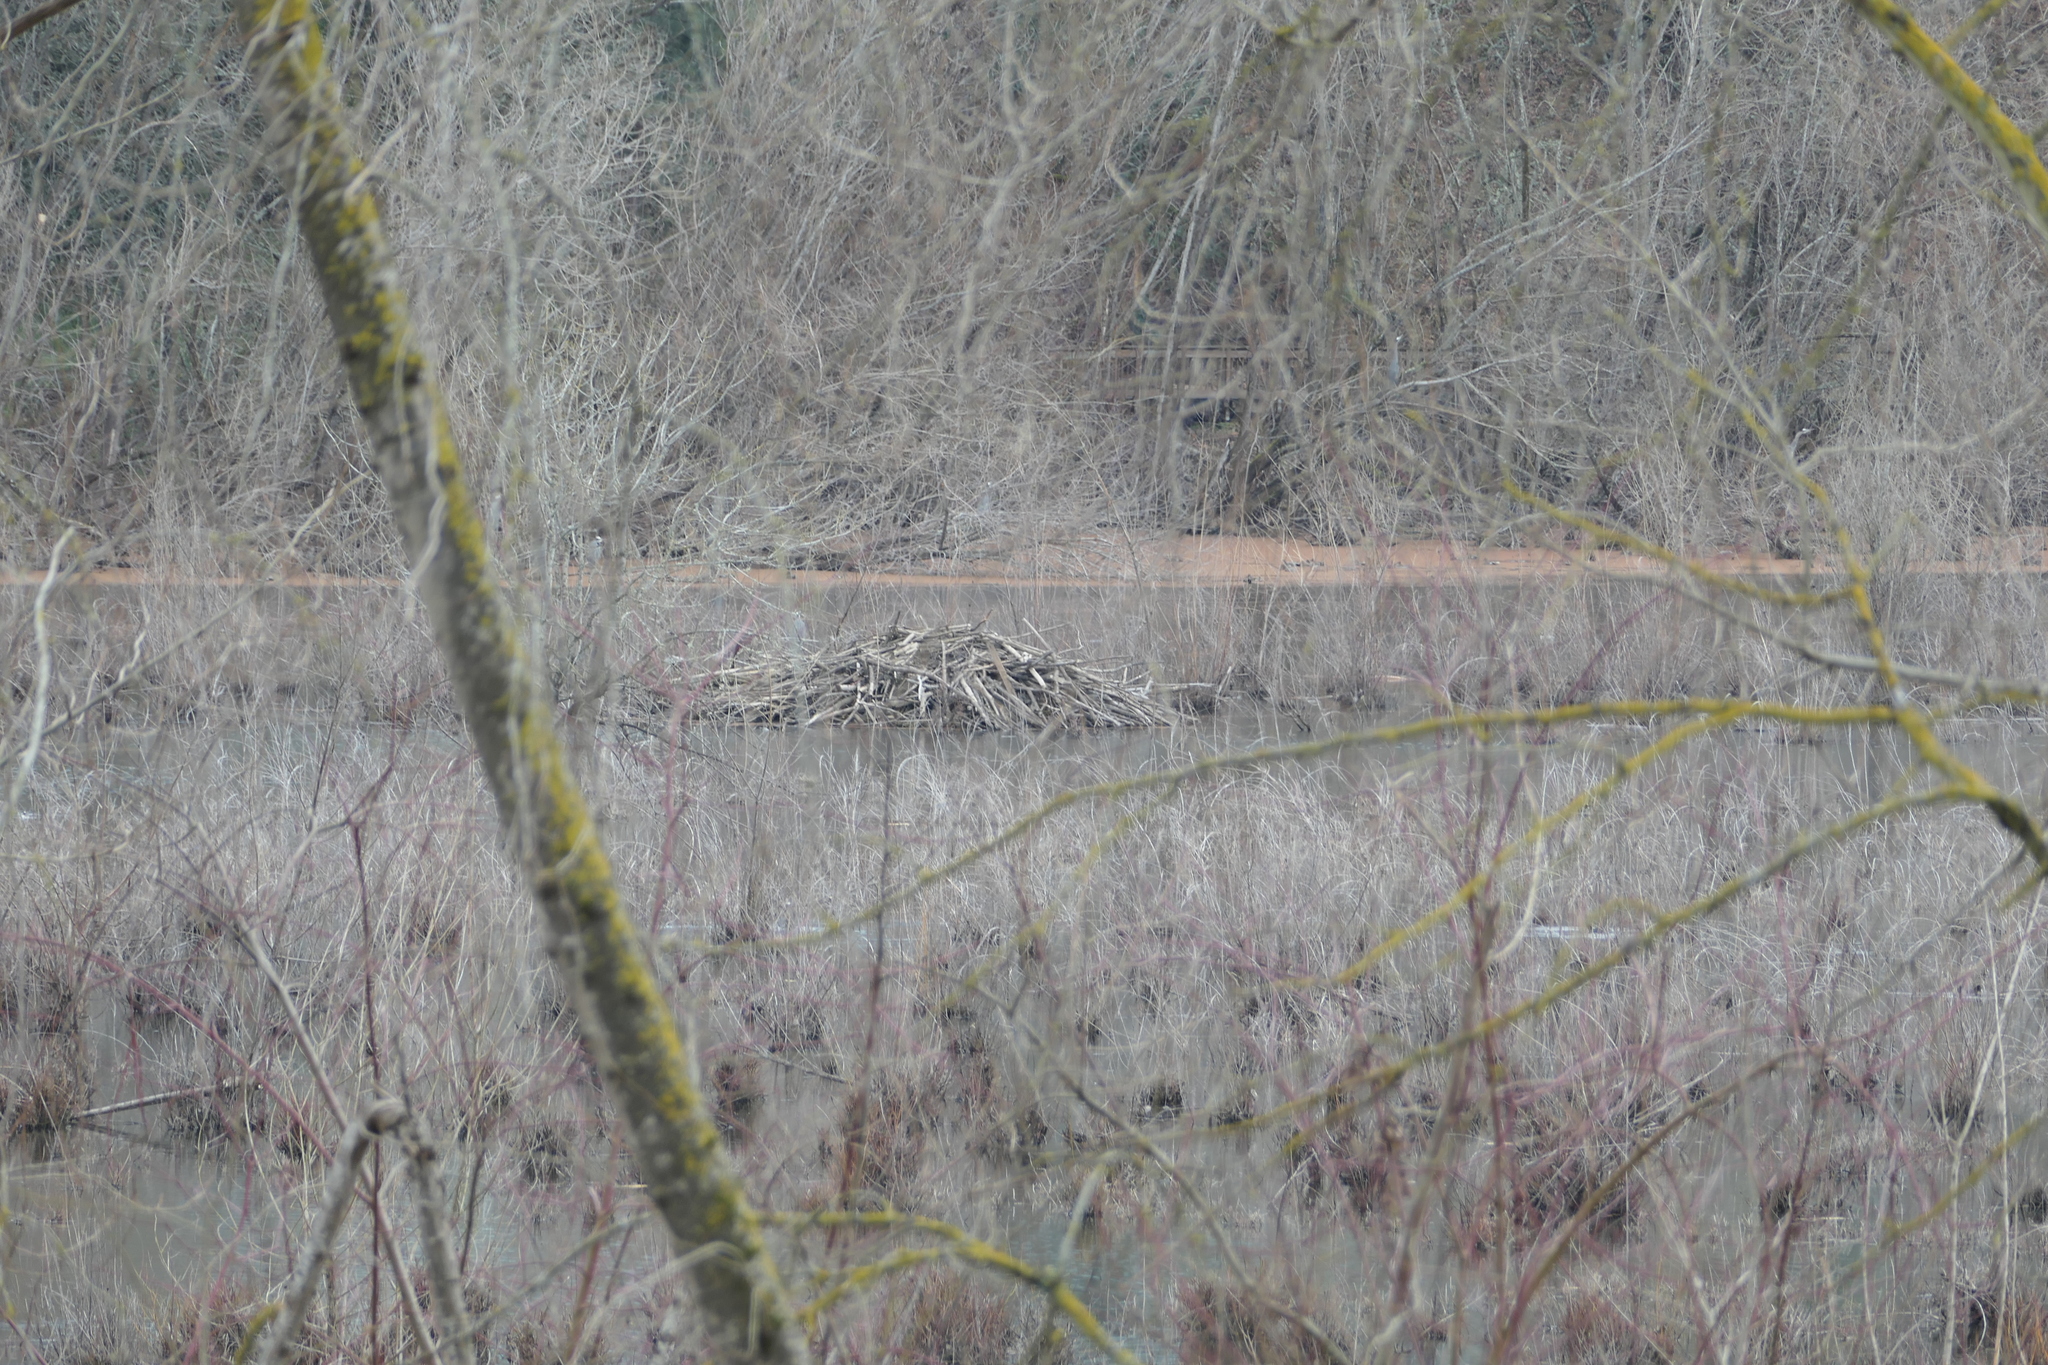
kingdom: Animalia
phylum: Chordata
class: Mammalia
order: Rodentia
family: Castoridae
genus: Castor
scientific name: Castor canadensis
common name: American beaver
